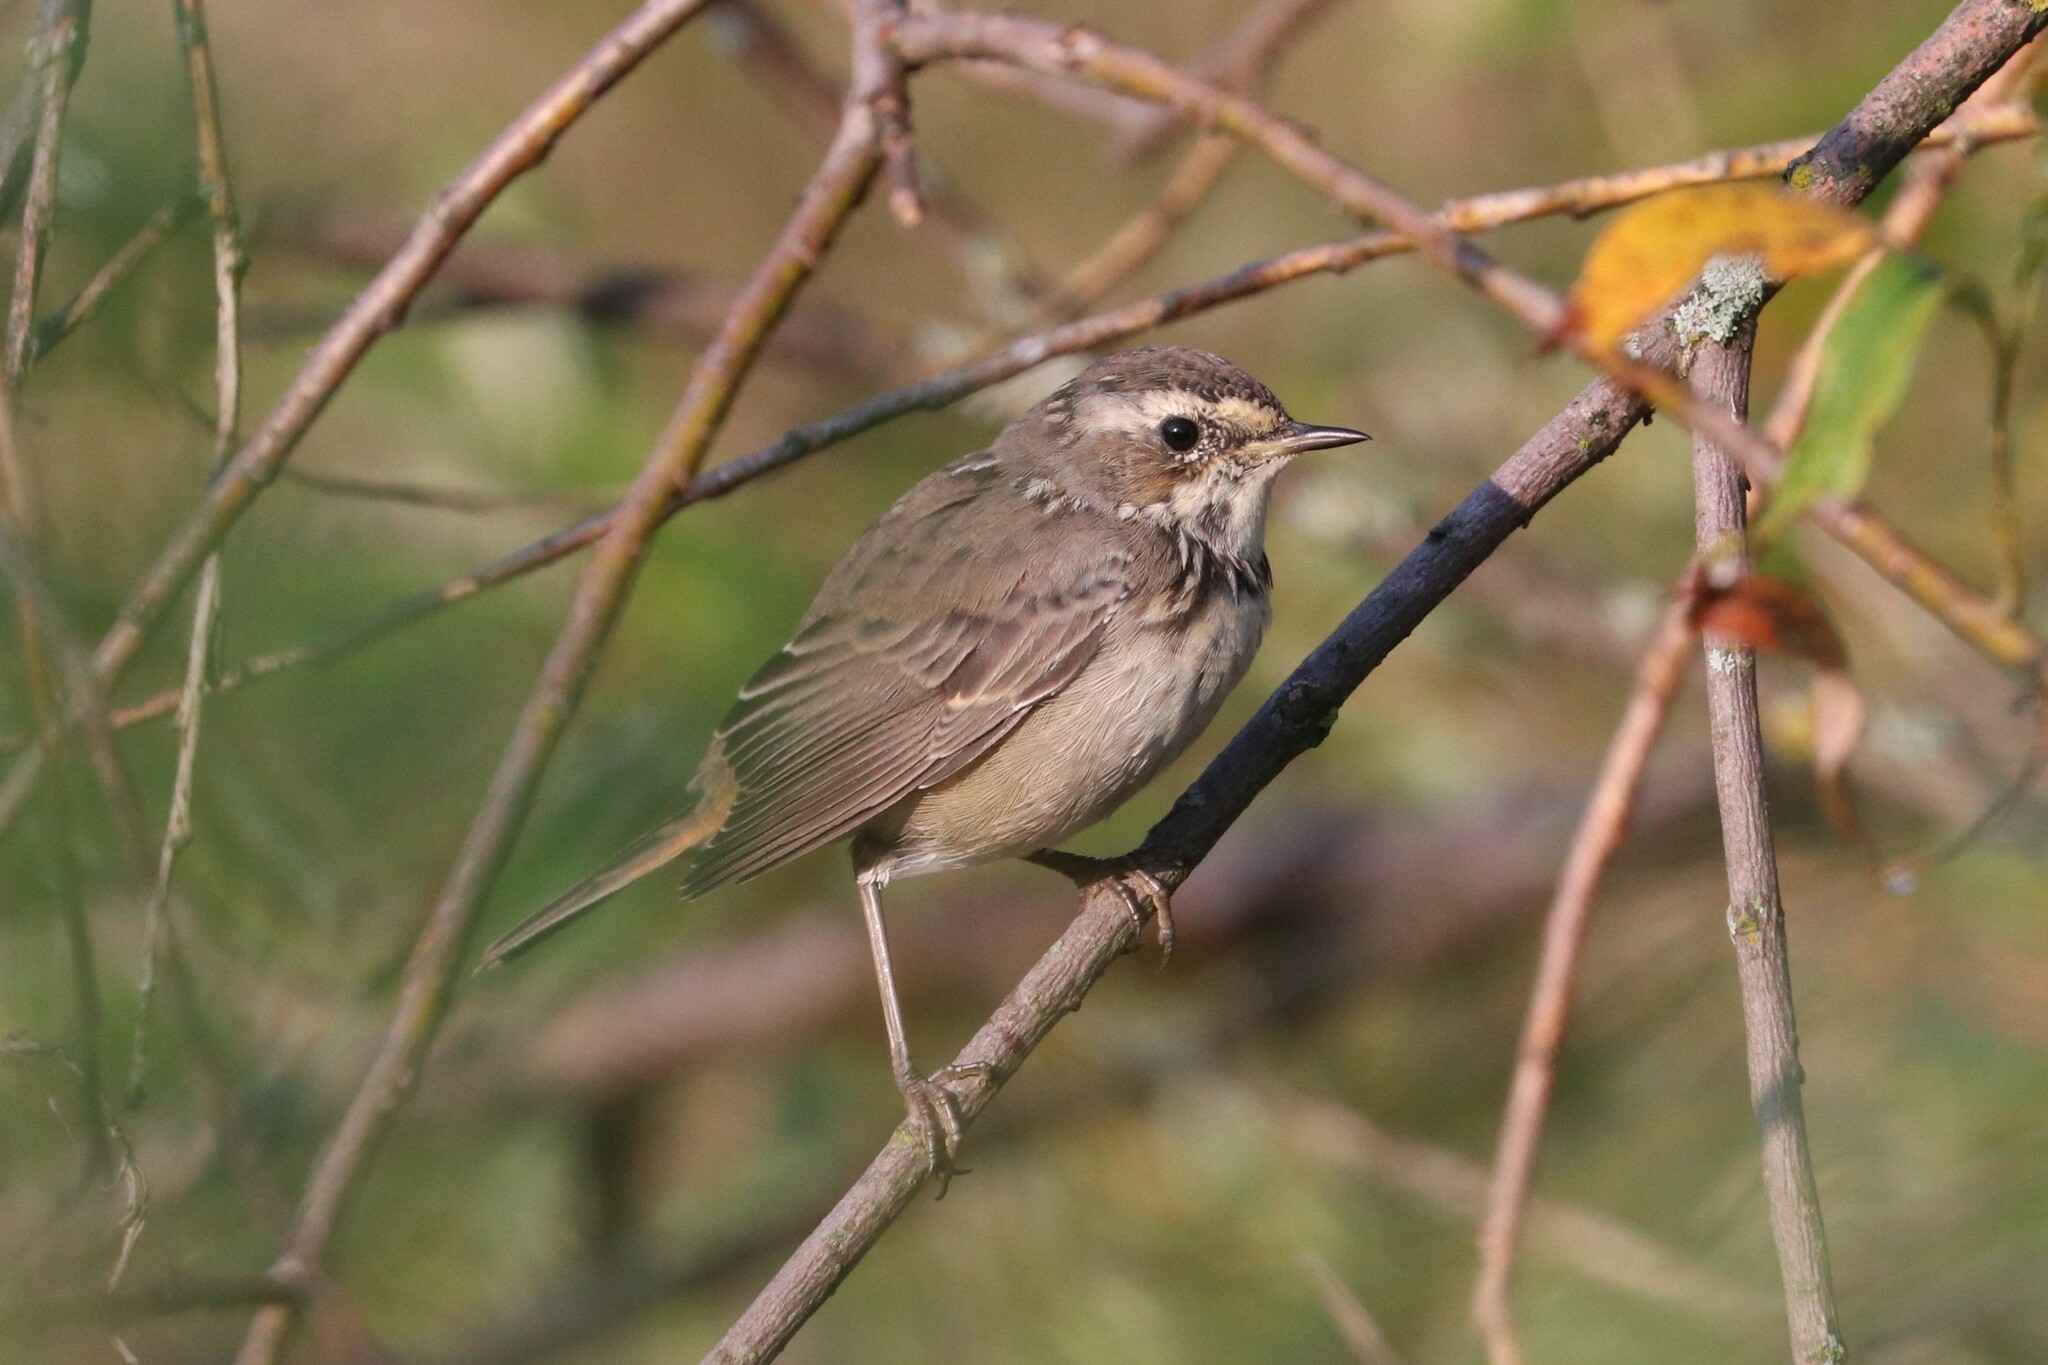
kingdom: Animalia
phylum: Chordata
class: Aves
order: Passeriformes
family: Muscicapidae
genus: Luscinia
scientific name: Luscinia svecica
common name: Bluethroat
